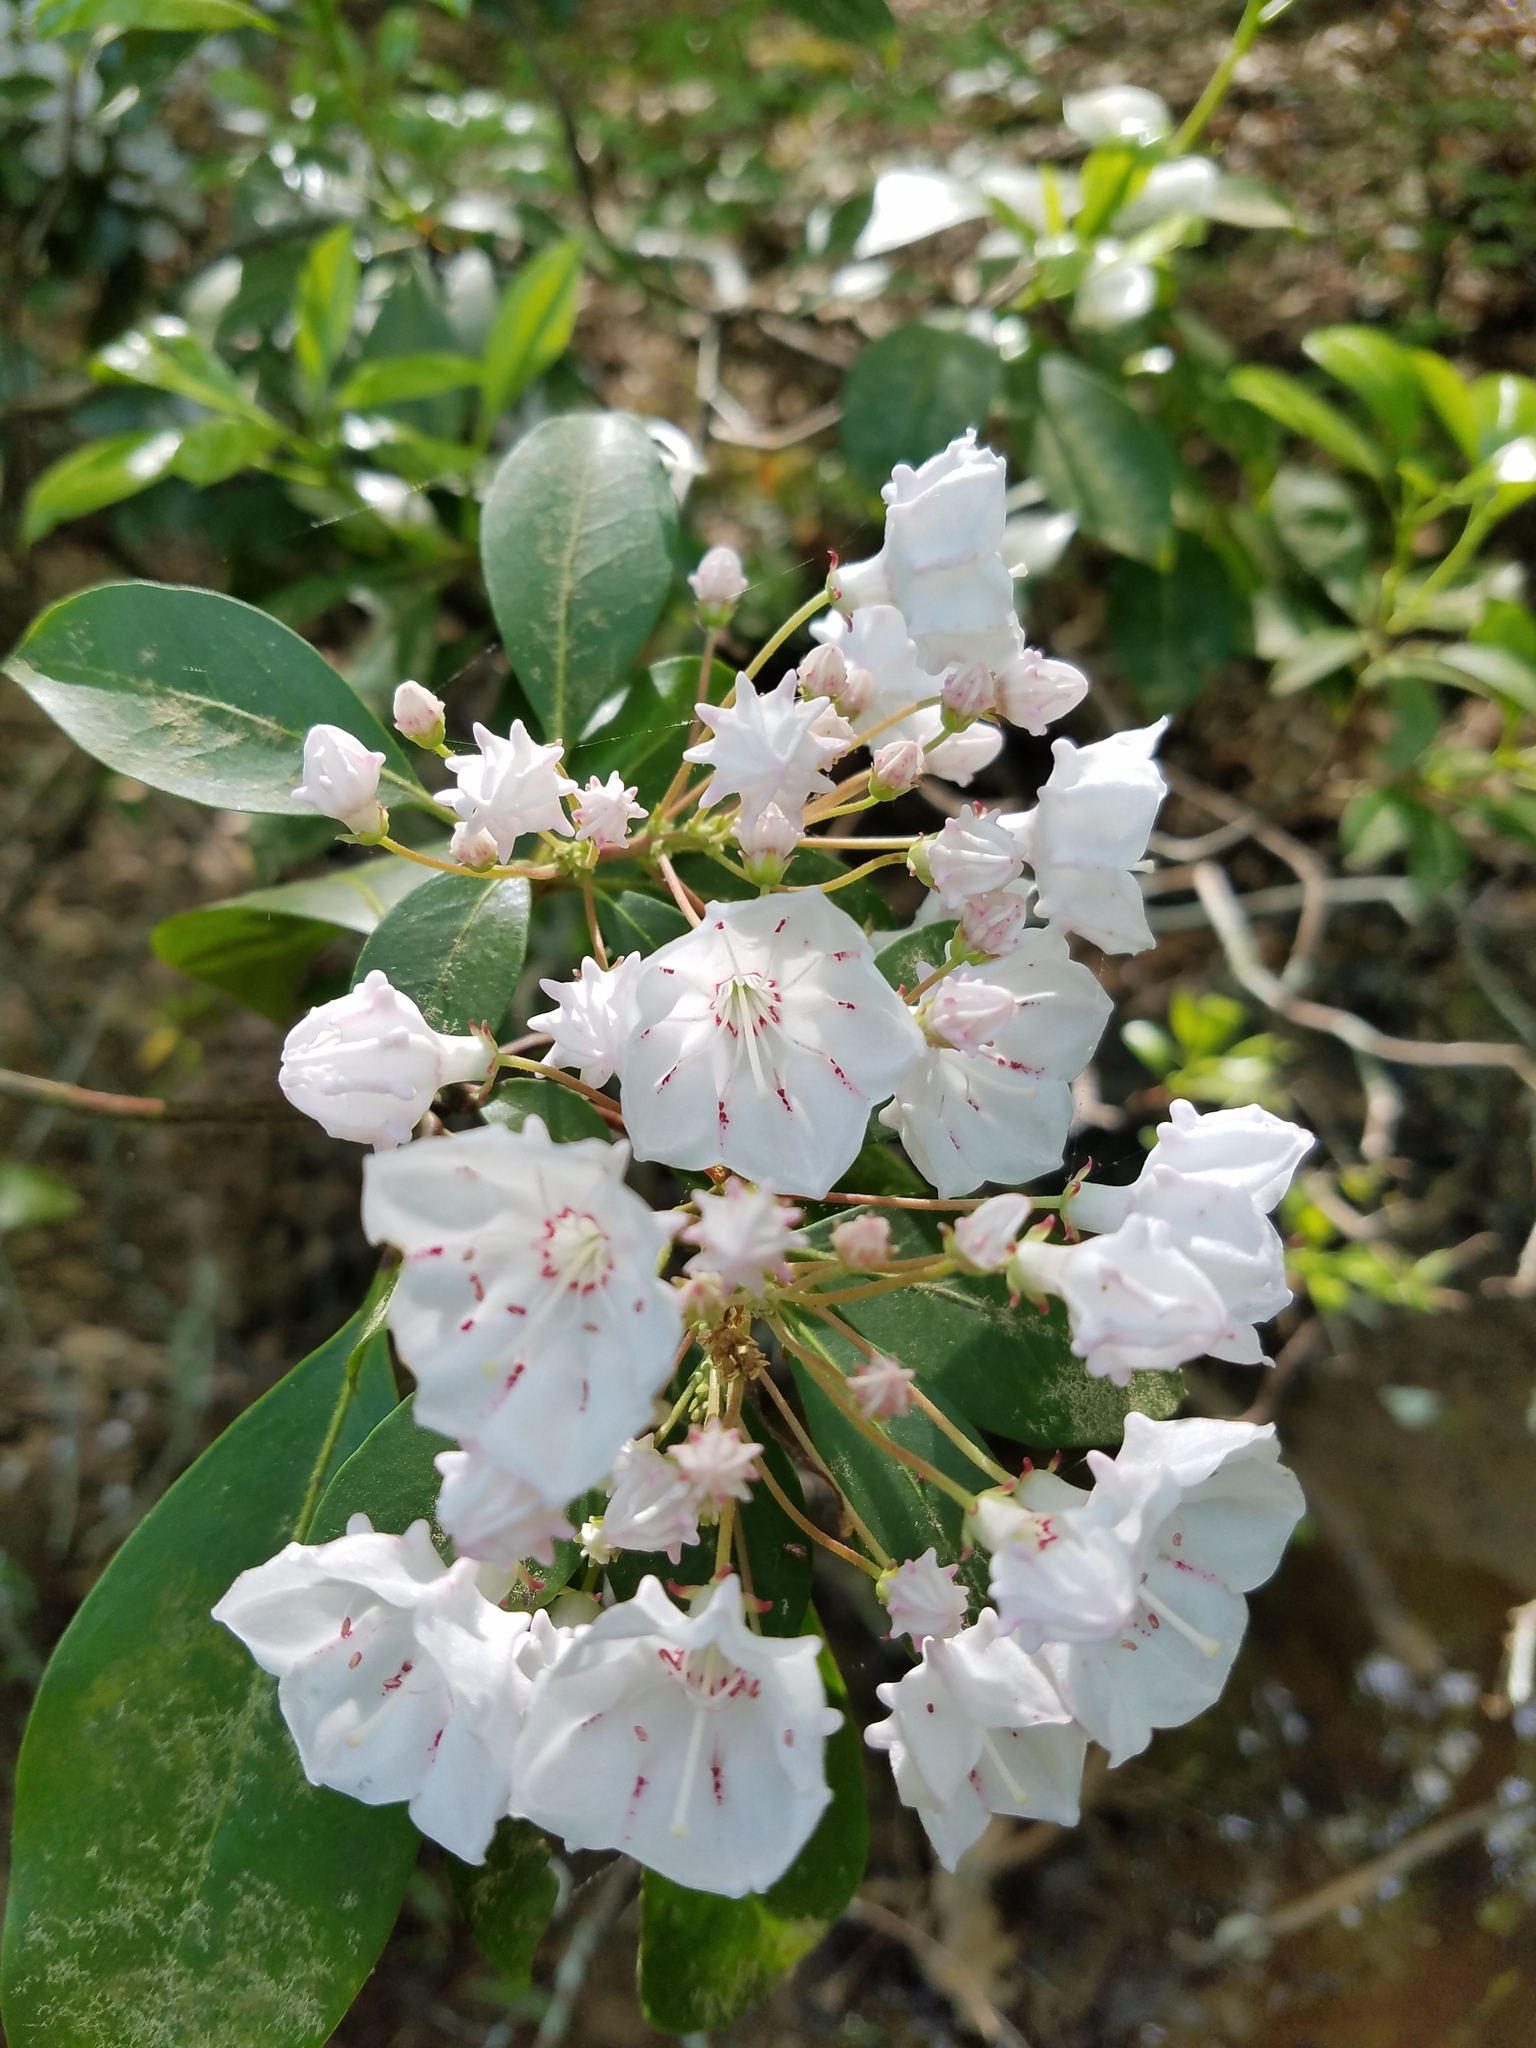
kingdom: Plantae
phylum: Tracheophyta
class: Magnoliopsida
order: Ericales
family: Ericaceae
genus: Kalmia
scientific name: Kalmia latifolia
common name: Mountain-laurel
